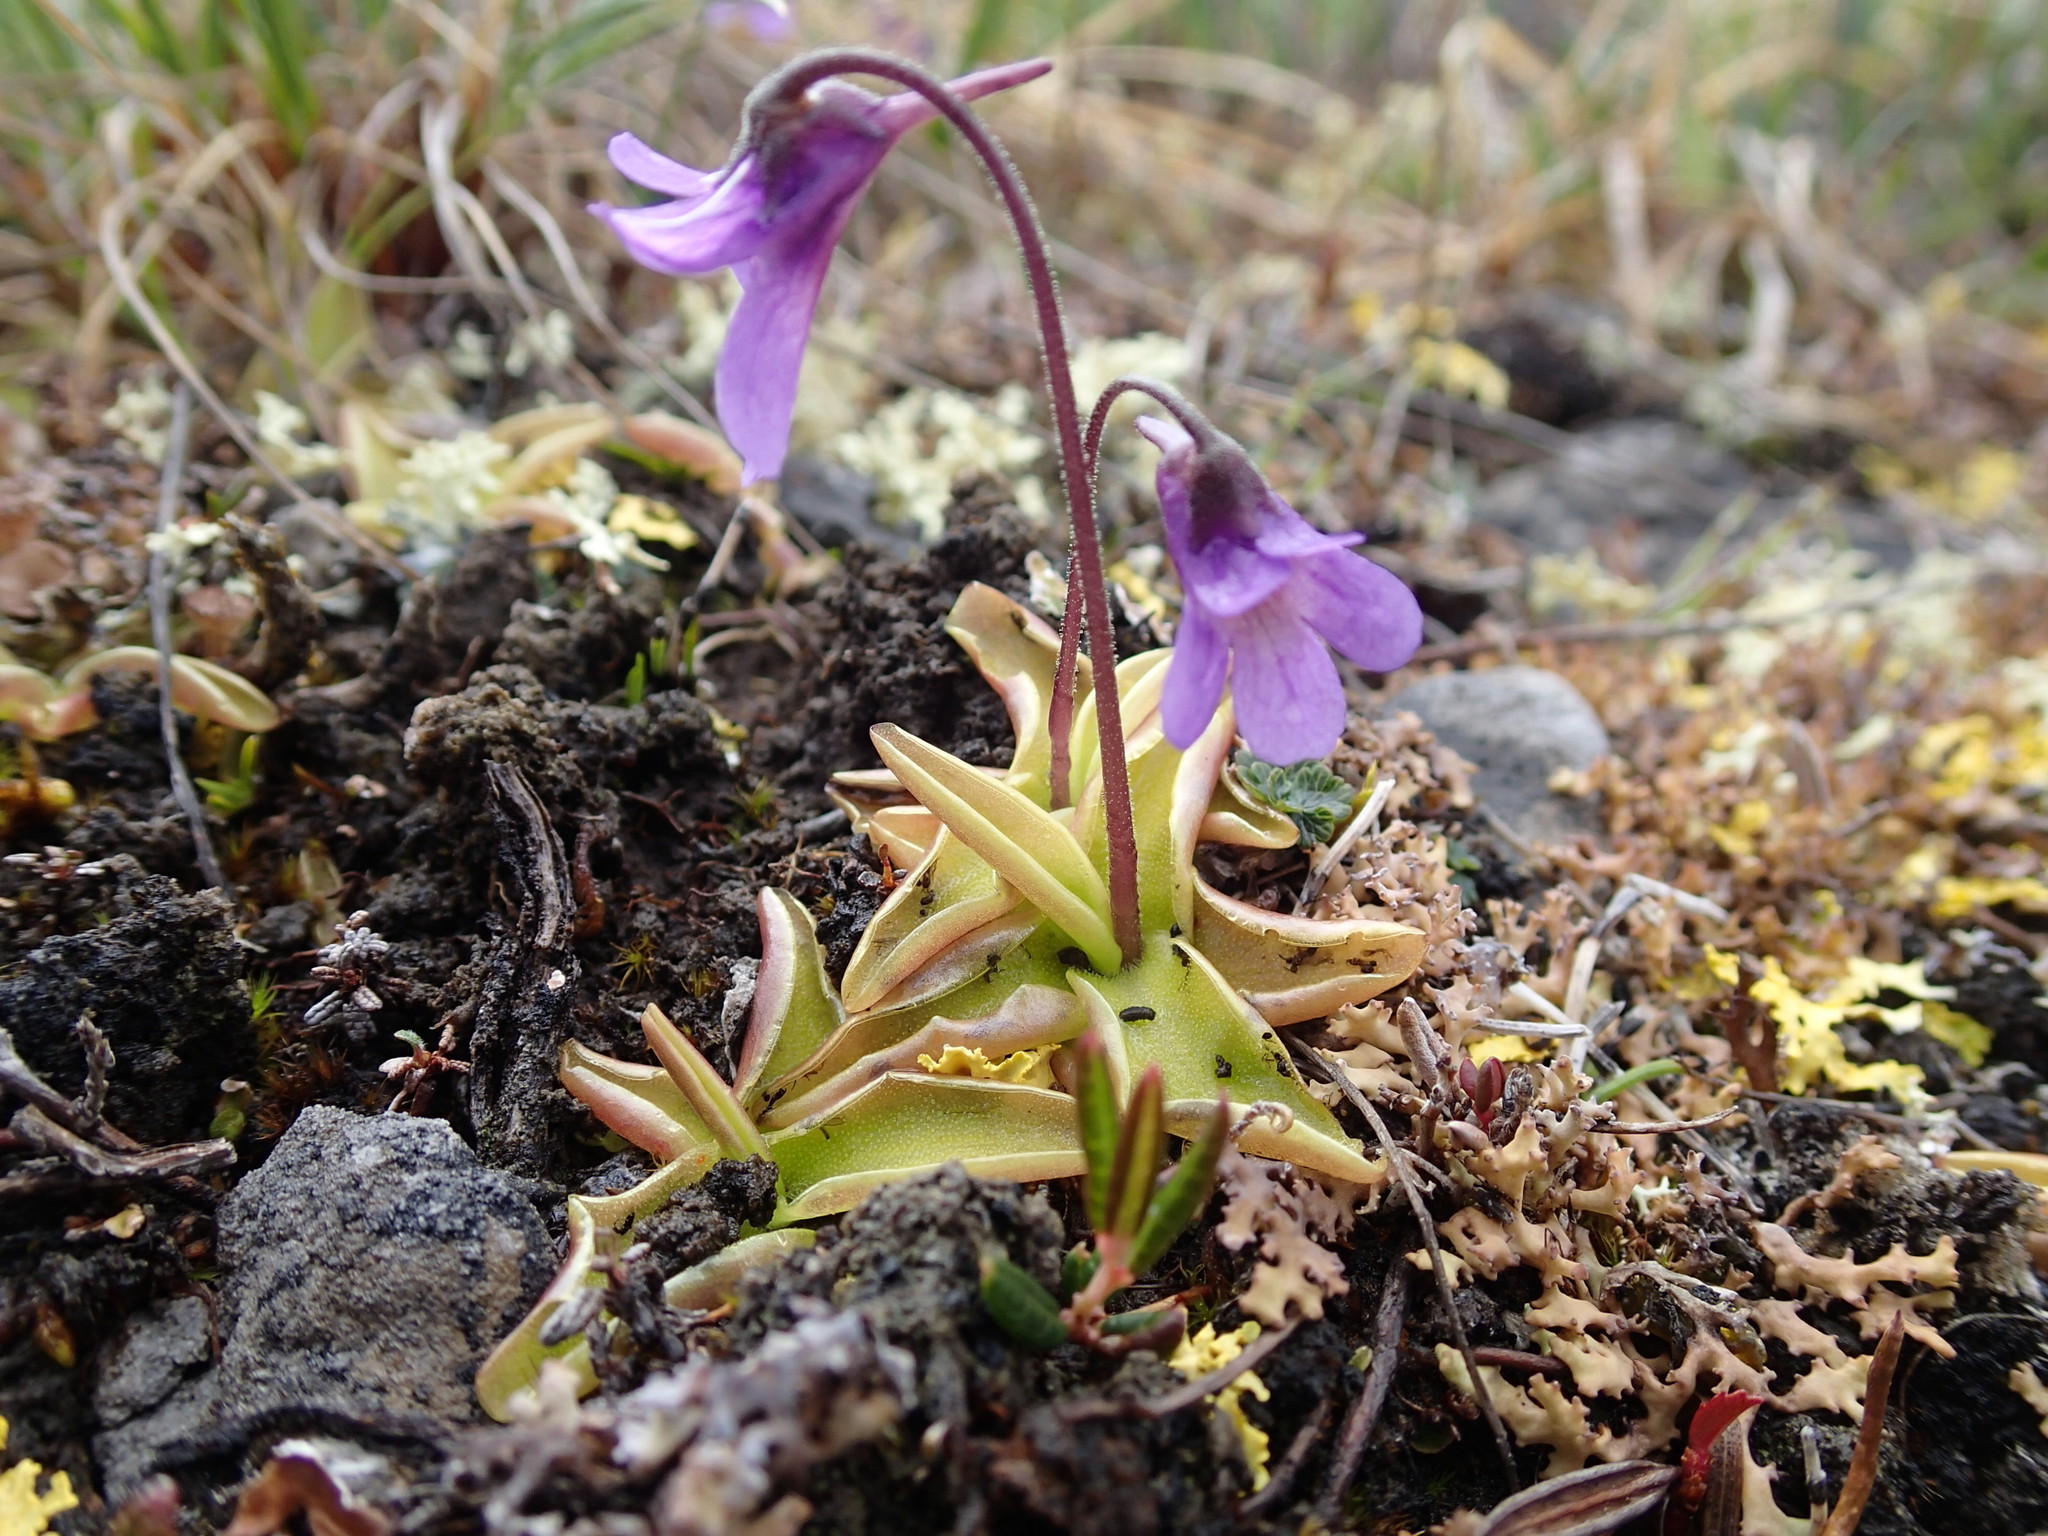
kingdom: Plantae
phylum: Tracheophyta
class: Magnoliopsida
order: Lamiales
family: Lentibulariaceae
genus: Pinguicula
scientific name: Pinguicula vulgaris
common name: Common butterwort
